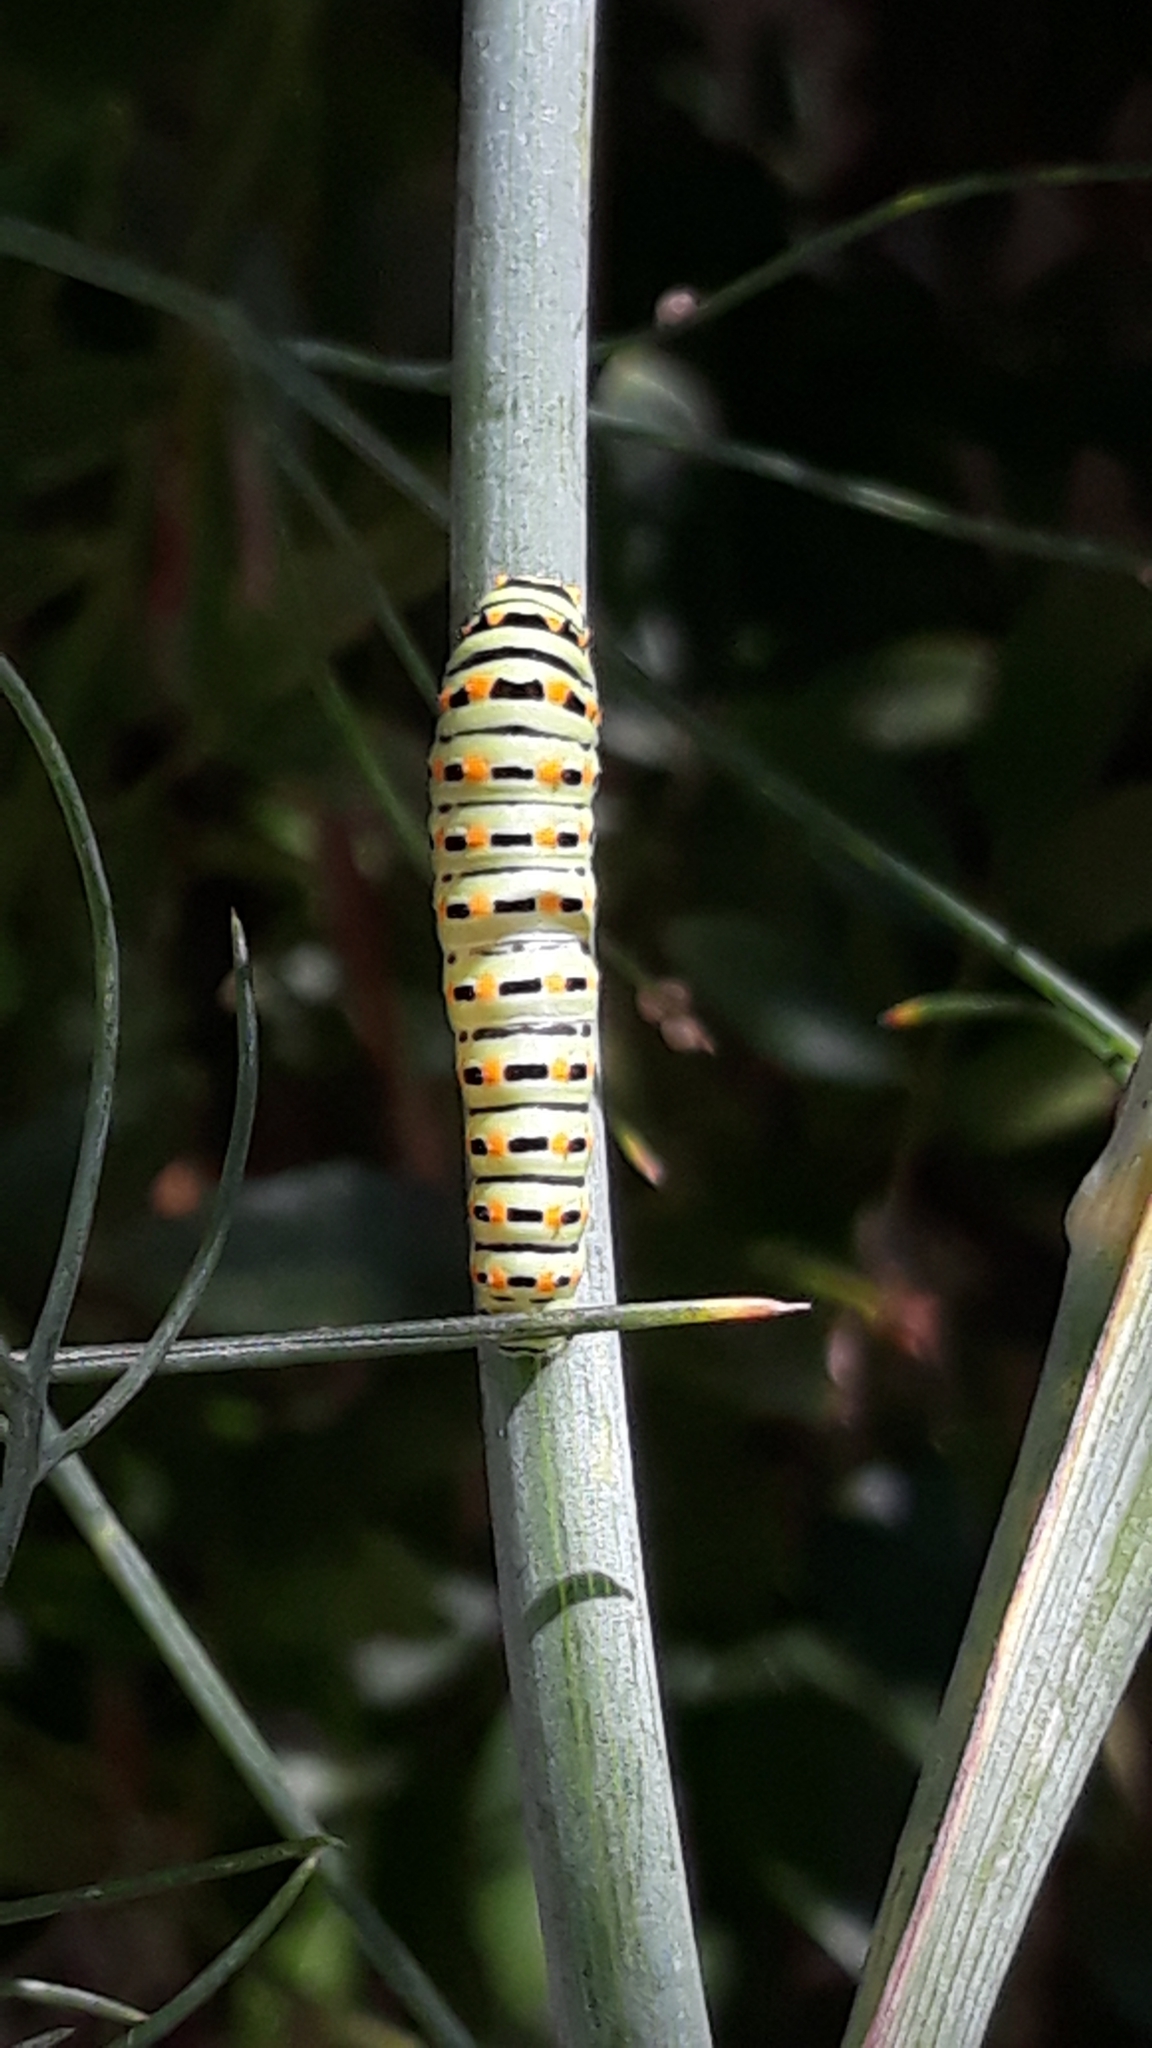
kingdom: Animalia
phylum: Arthropoda
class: Insecta
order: Lepidoptera
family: Papilionidae
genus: Papilio
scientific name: Papilio machaon
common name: Swallowtail
